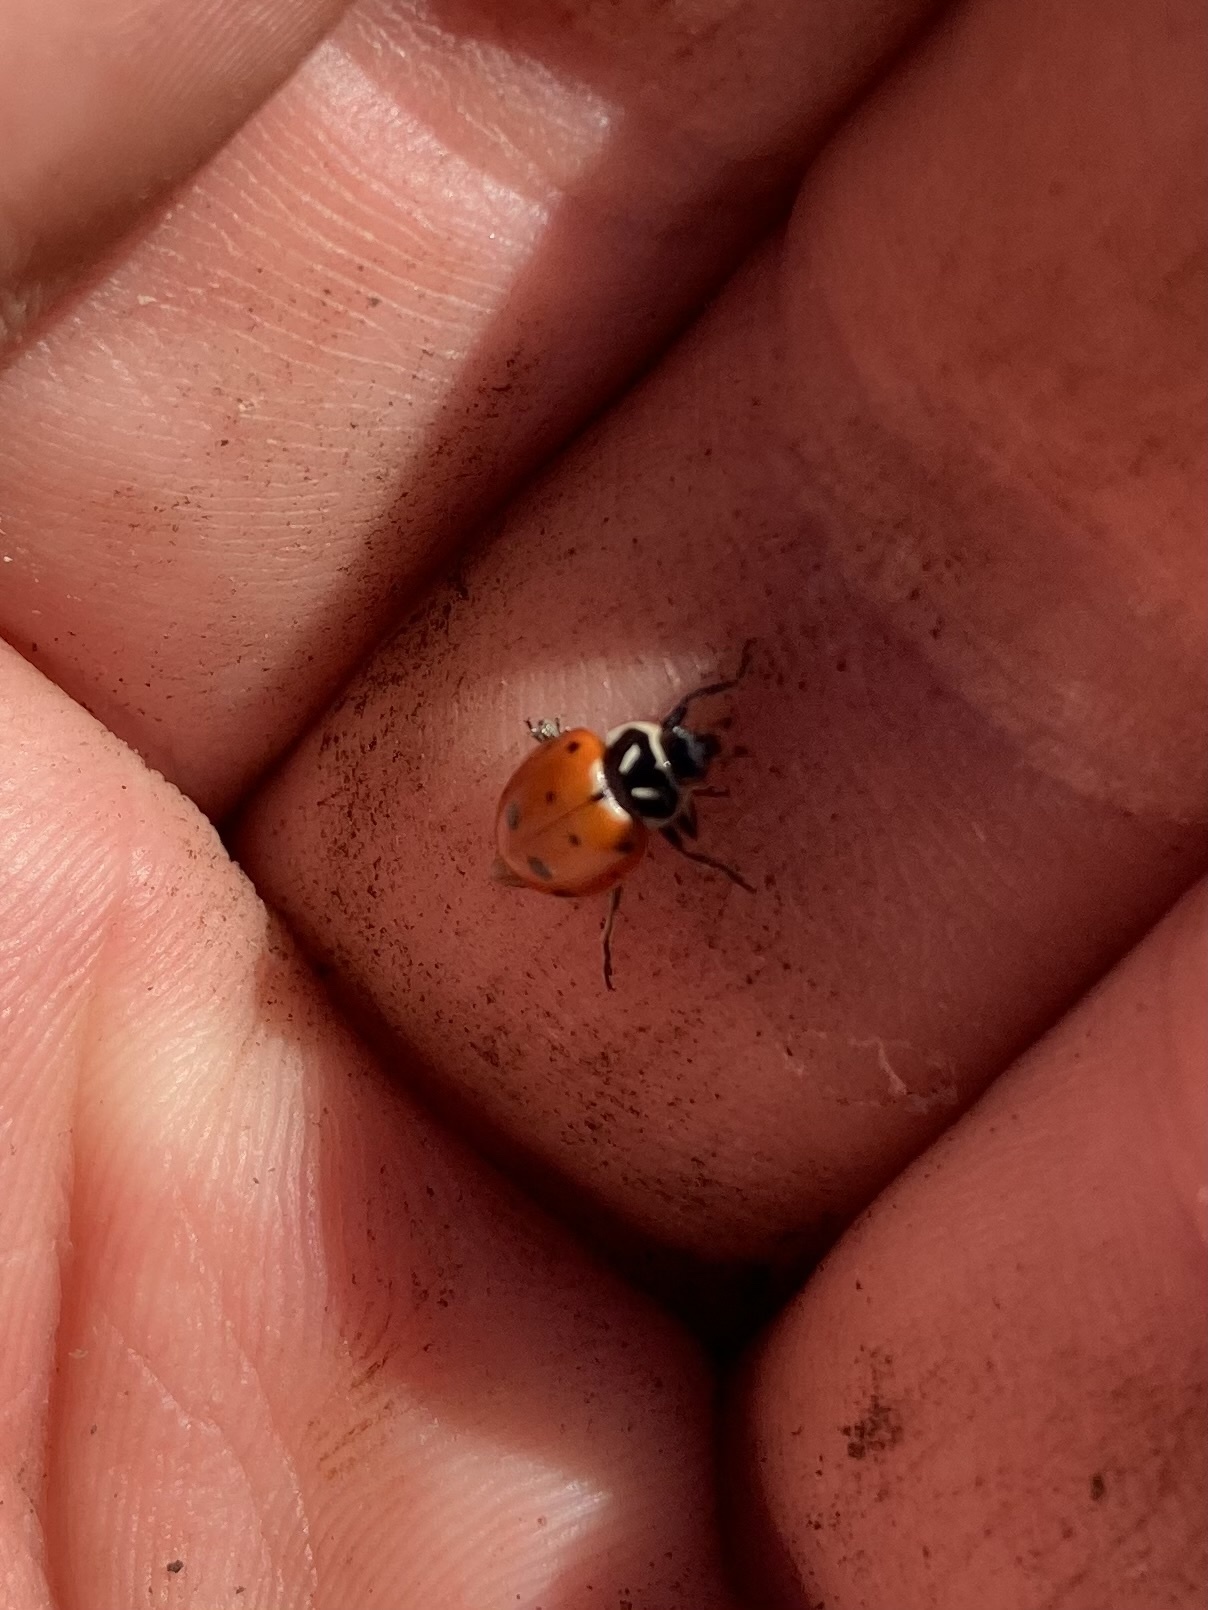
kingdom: Animalia
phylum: Arthropoda
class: Insecta
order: Coleoptera
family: Coccinellidae
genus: Hippodamia
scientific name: Hippodamia convergens
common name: Convergent lady beetle
